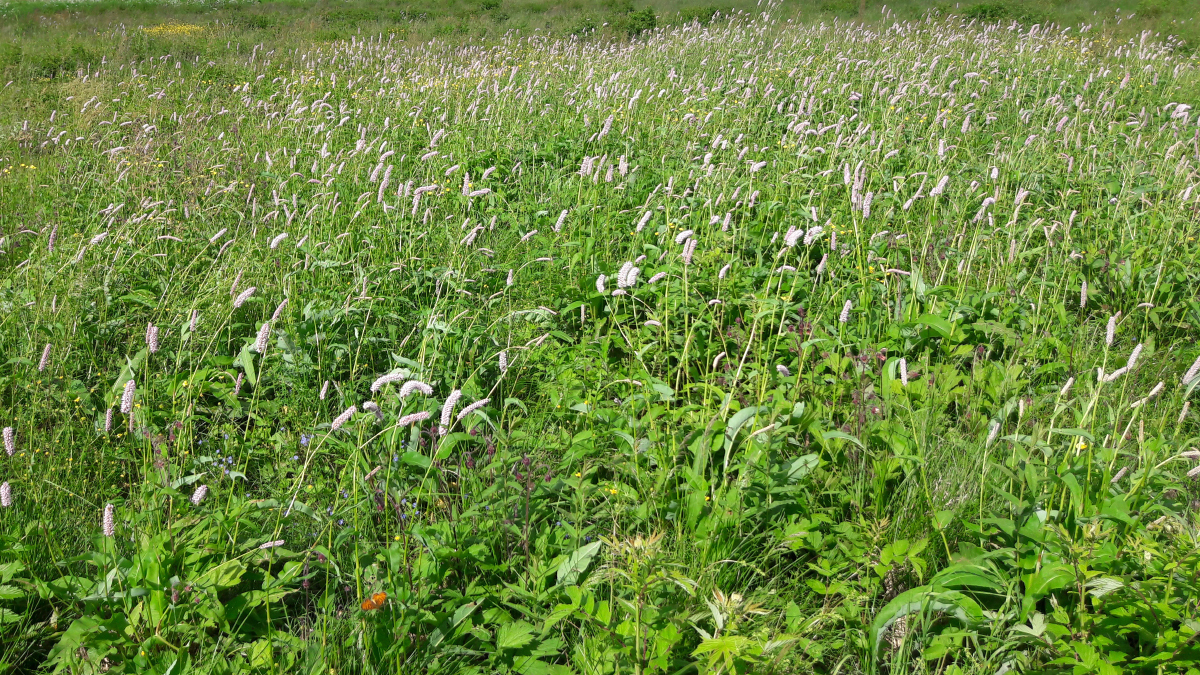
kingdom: Plantae
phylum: Tracheophyta
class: Magnoliopsida
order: Caryophyllales
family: Polygonaceae
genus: Bistorta
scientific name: Bistorta officinalis
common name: Common bistort
